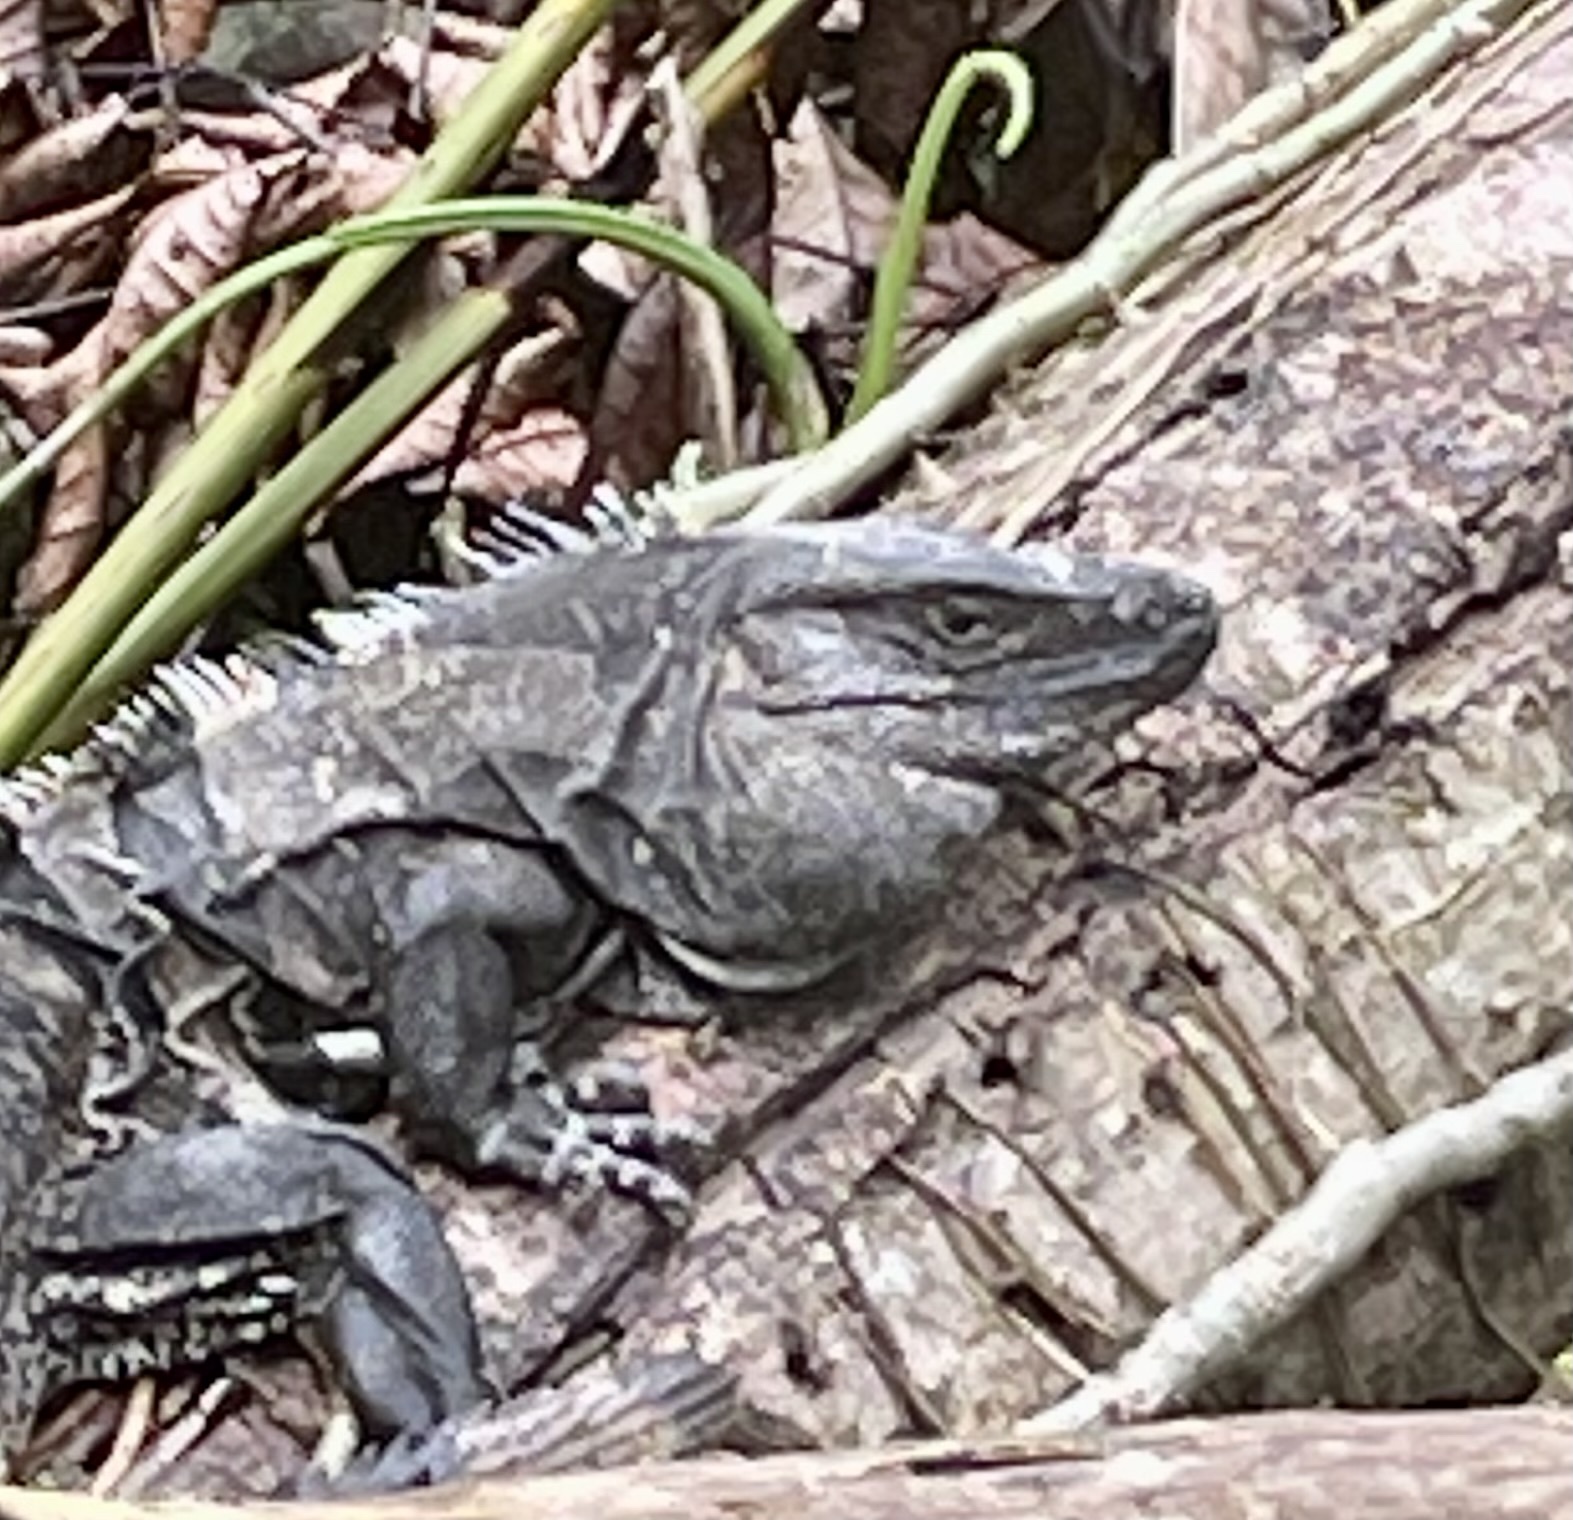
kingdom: Animalia
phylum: Chordata
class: Squamata
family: Iguanidae
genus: Ctenosaura
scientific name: Ctenosaura similis
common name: Black spiny-tailed iguana
